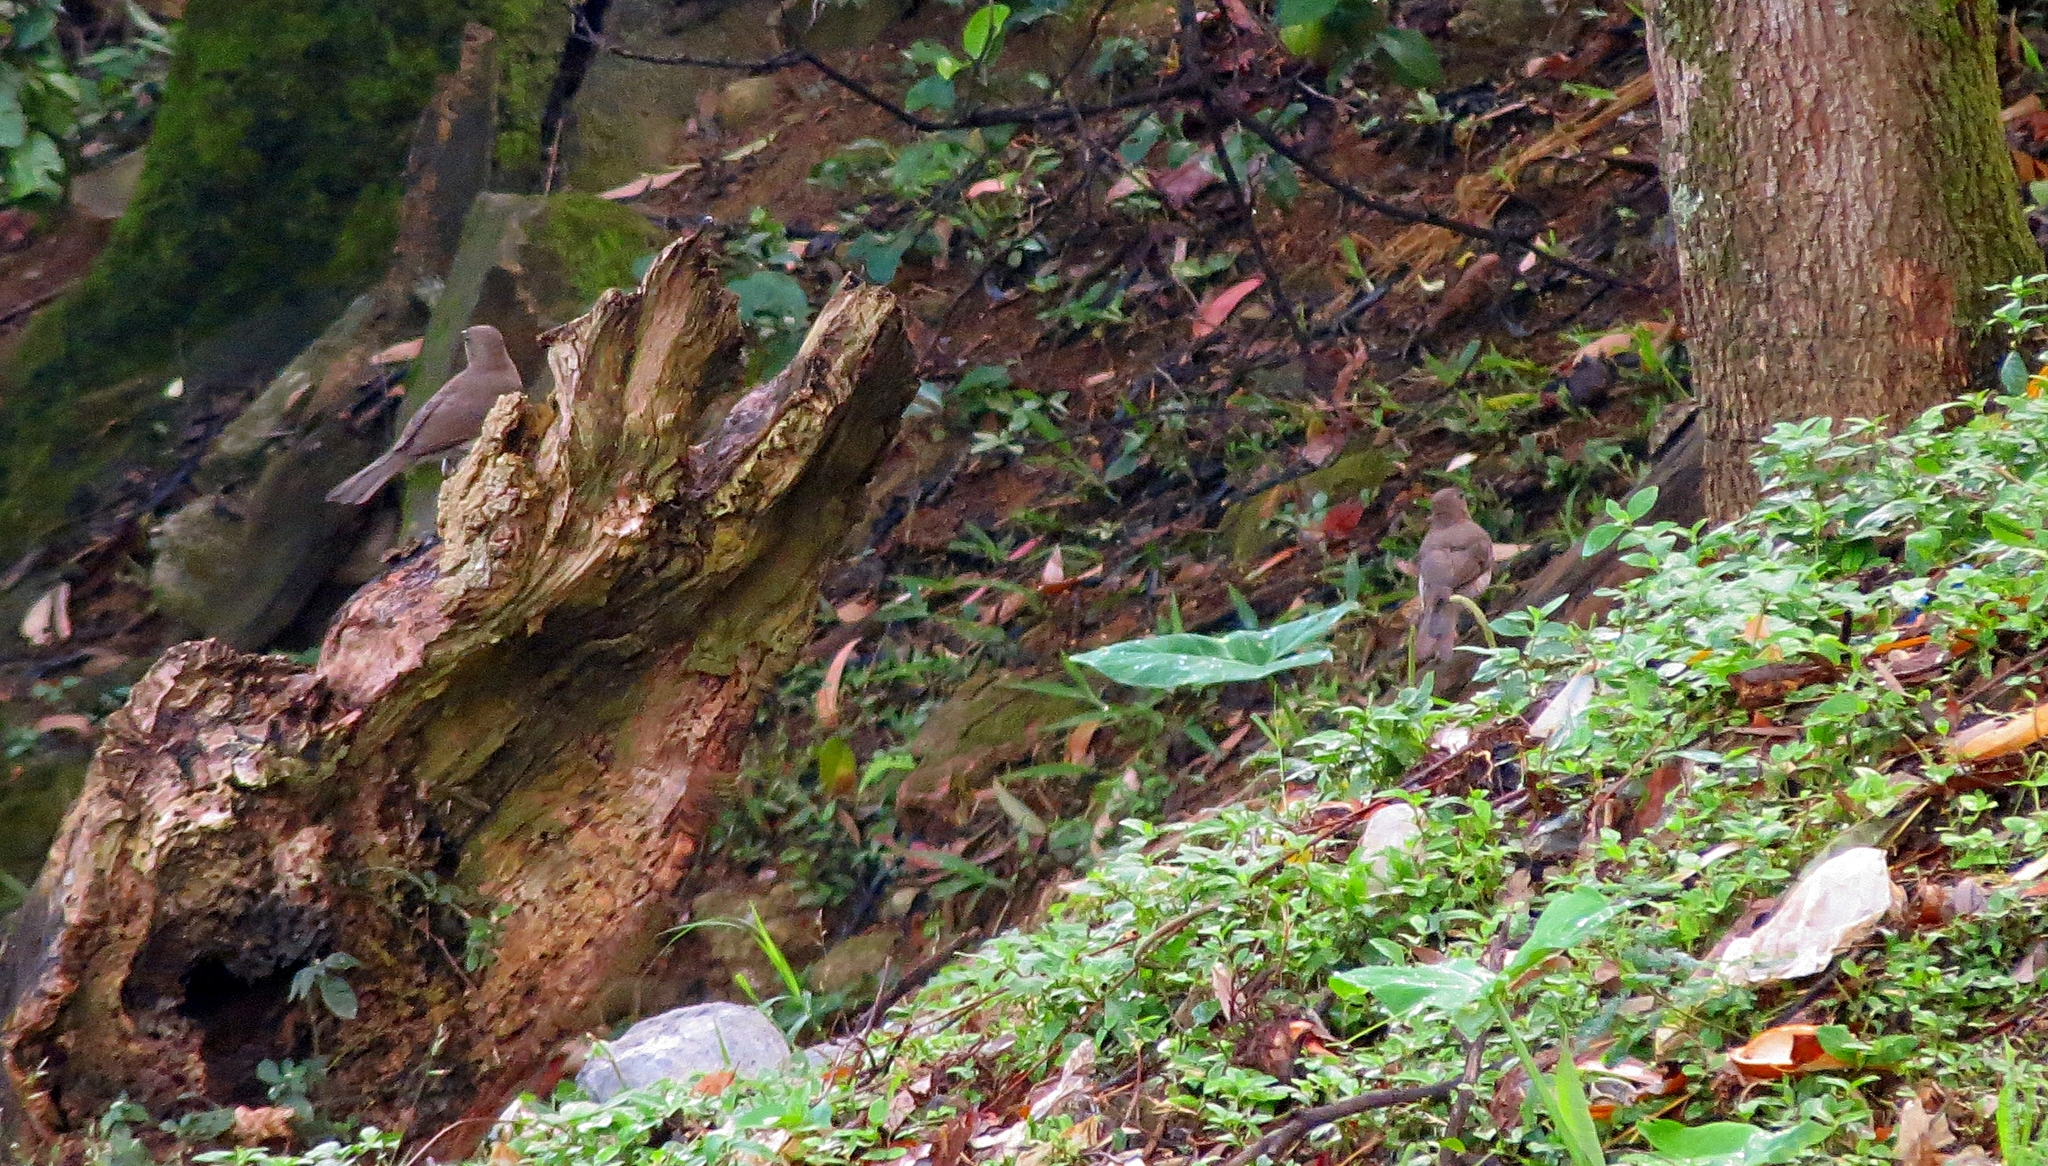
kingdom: Animalia
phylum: Chordata
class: Aves
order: Passeriformes
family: Turdidae
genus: Turdus
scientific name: Turdus ignobilis
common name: Black-billed thrush
